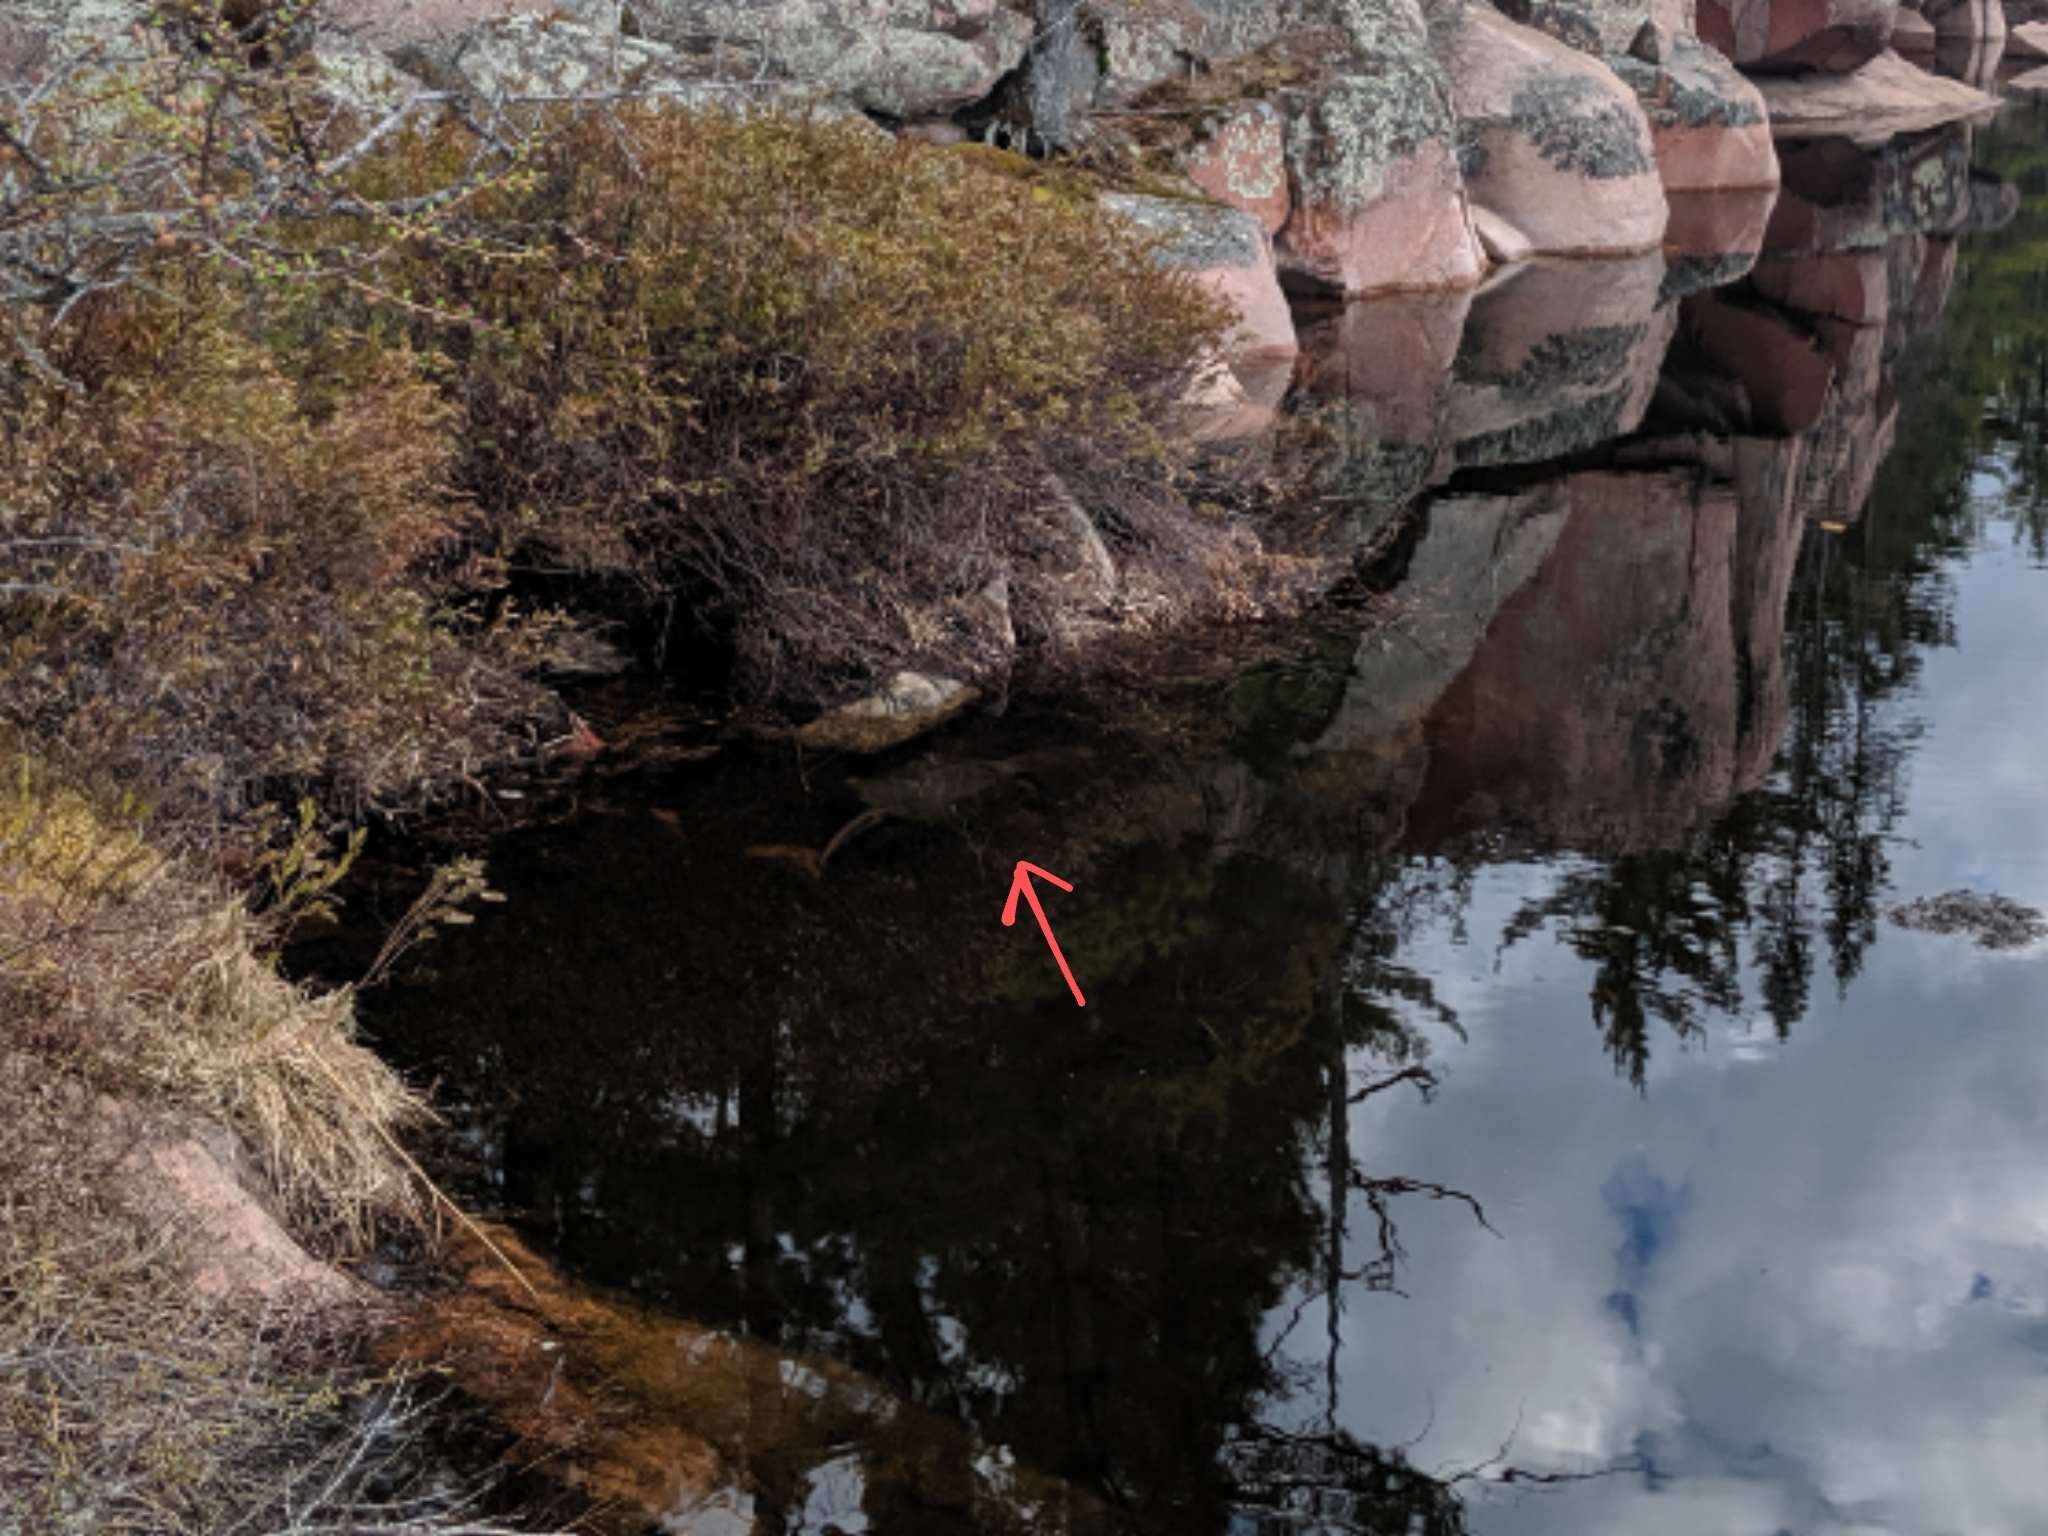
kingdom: Animalia
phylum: Chordata
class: Testudines
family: Chelydridae
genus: Chelydra
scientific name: Chelydra serpentina
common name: Common snapping turtle
